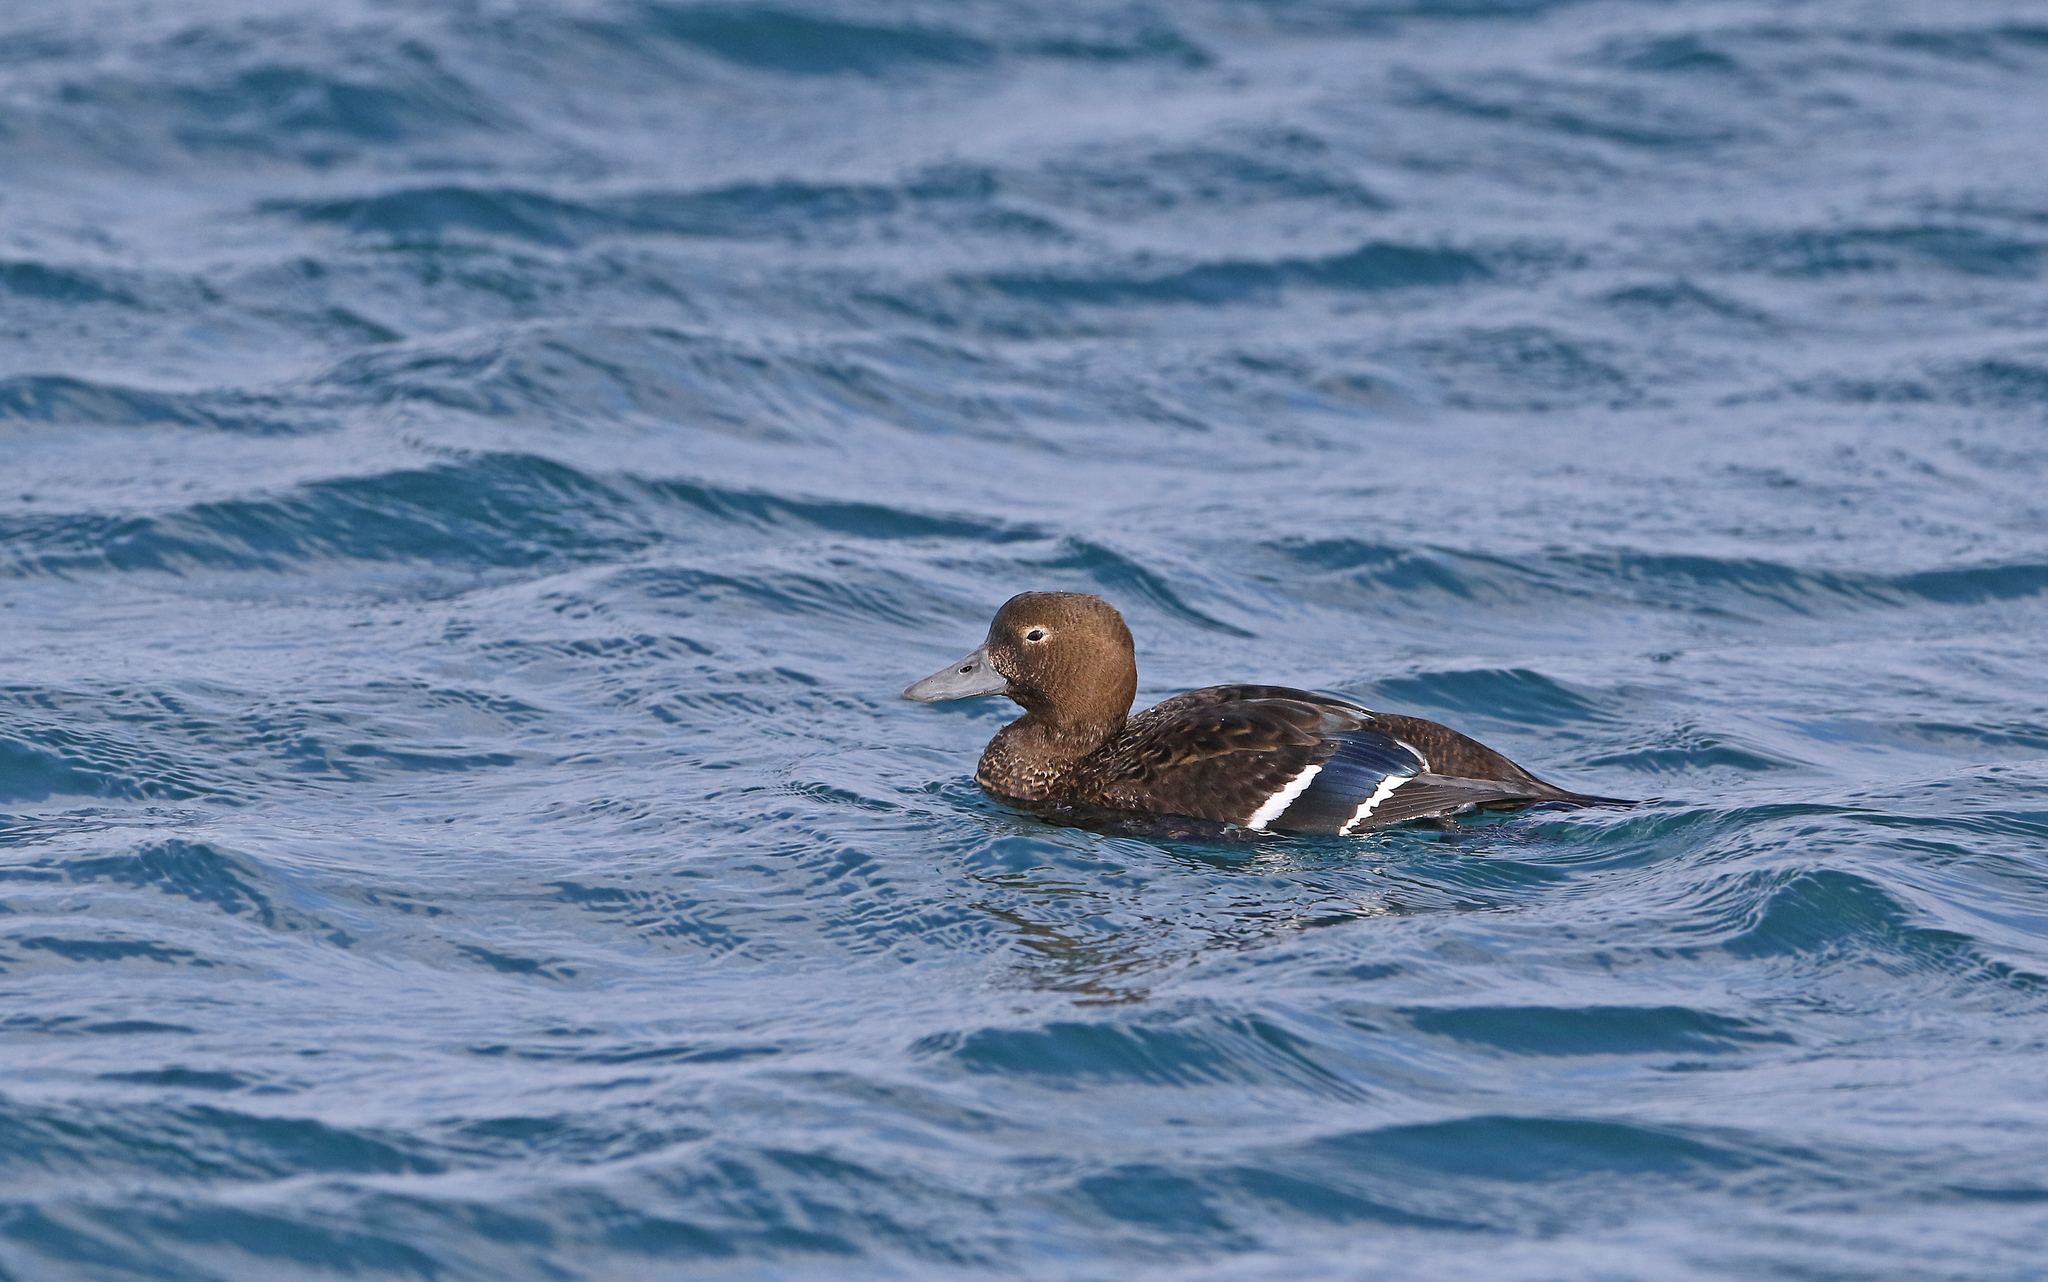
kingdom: Animalia
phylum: Chordata
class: Aves
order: Anseriformes
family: Anatidae
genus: Polysticta
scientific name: Polysticta stelleri
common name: Steller's eider
